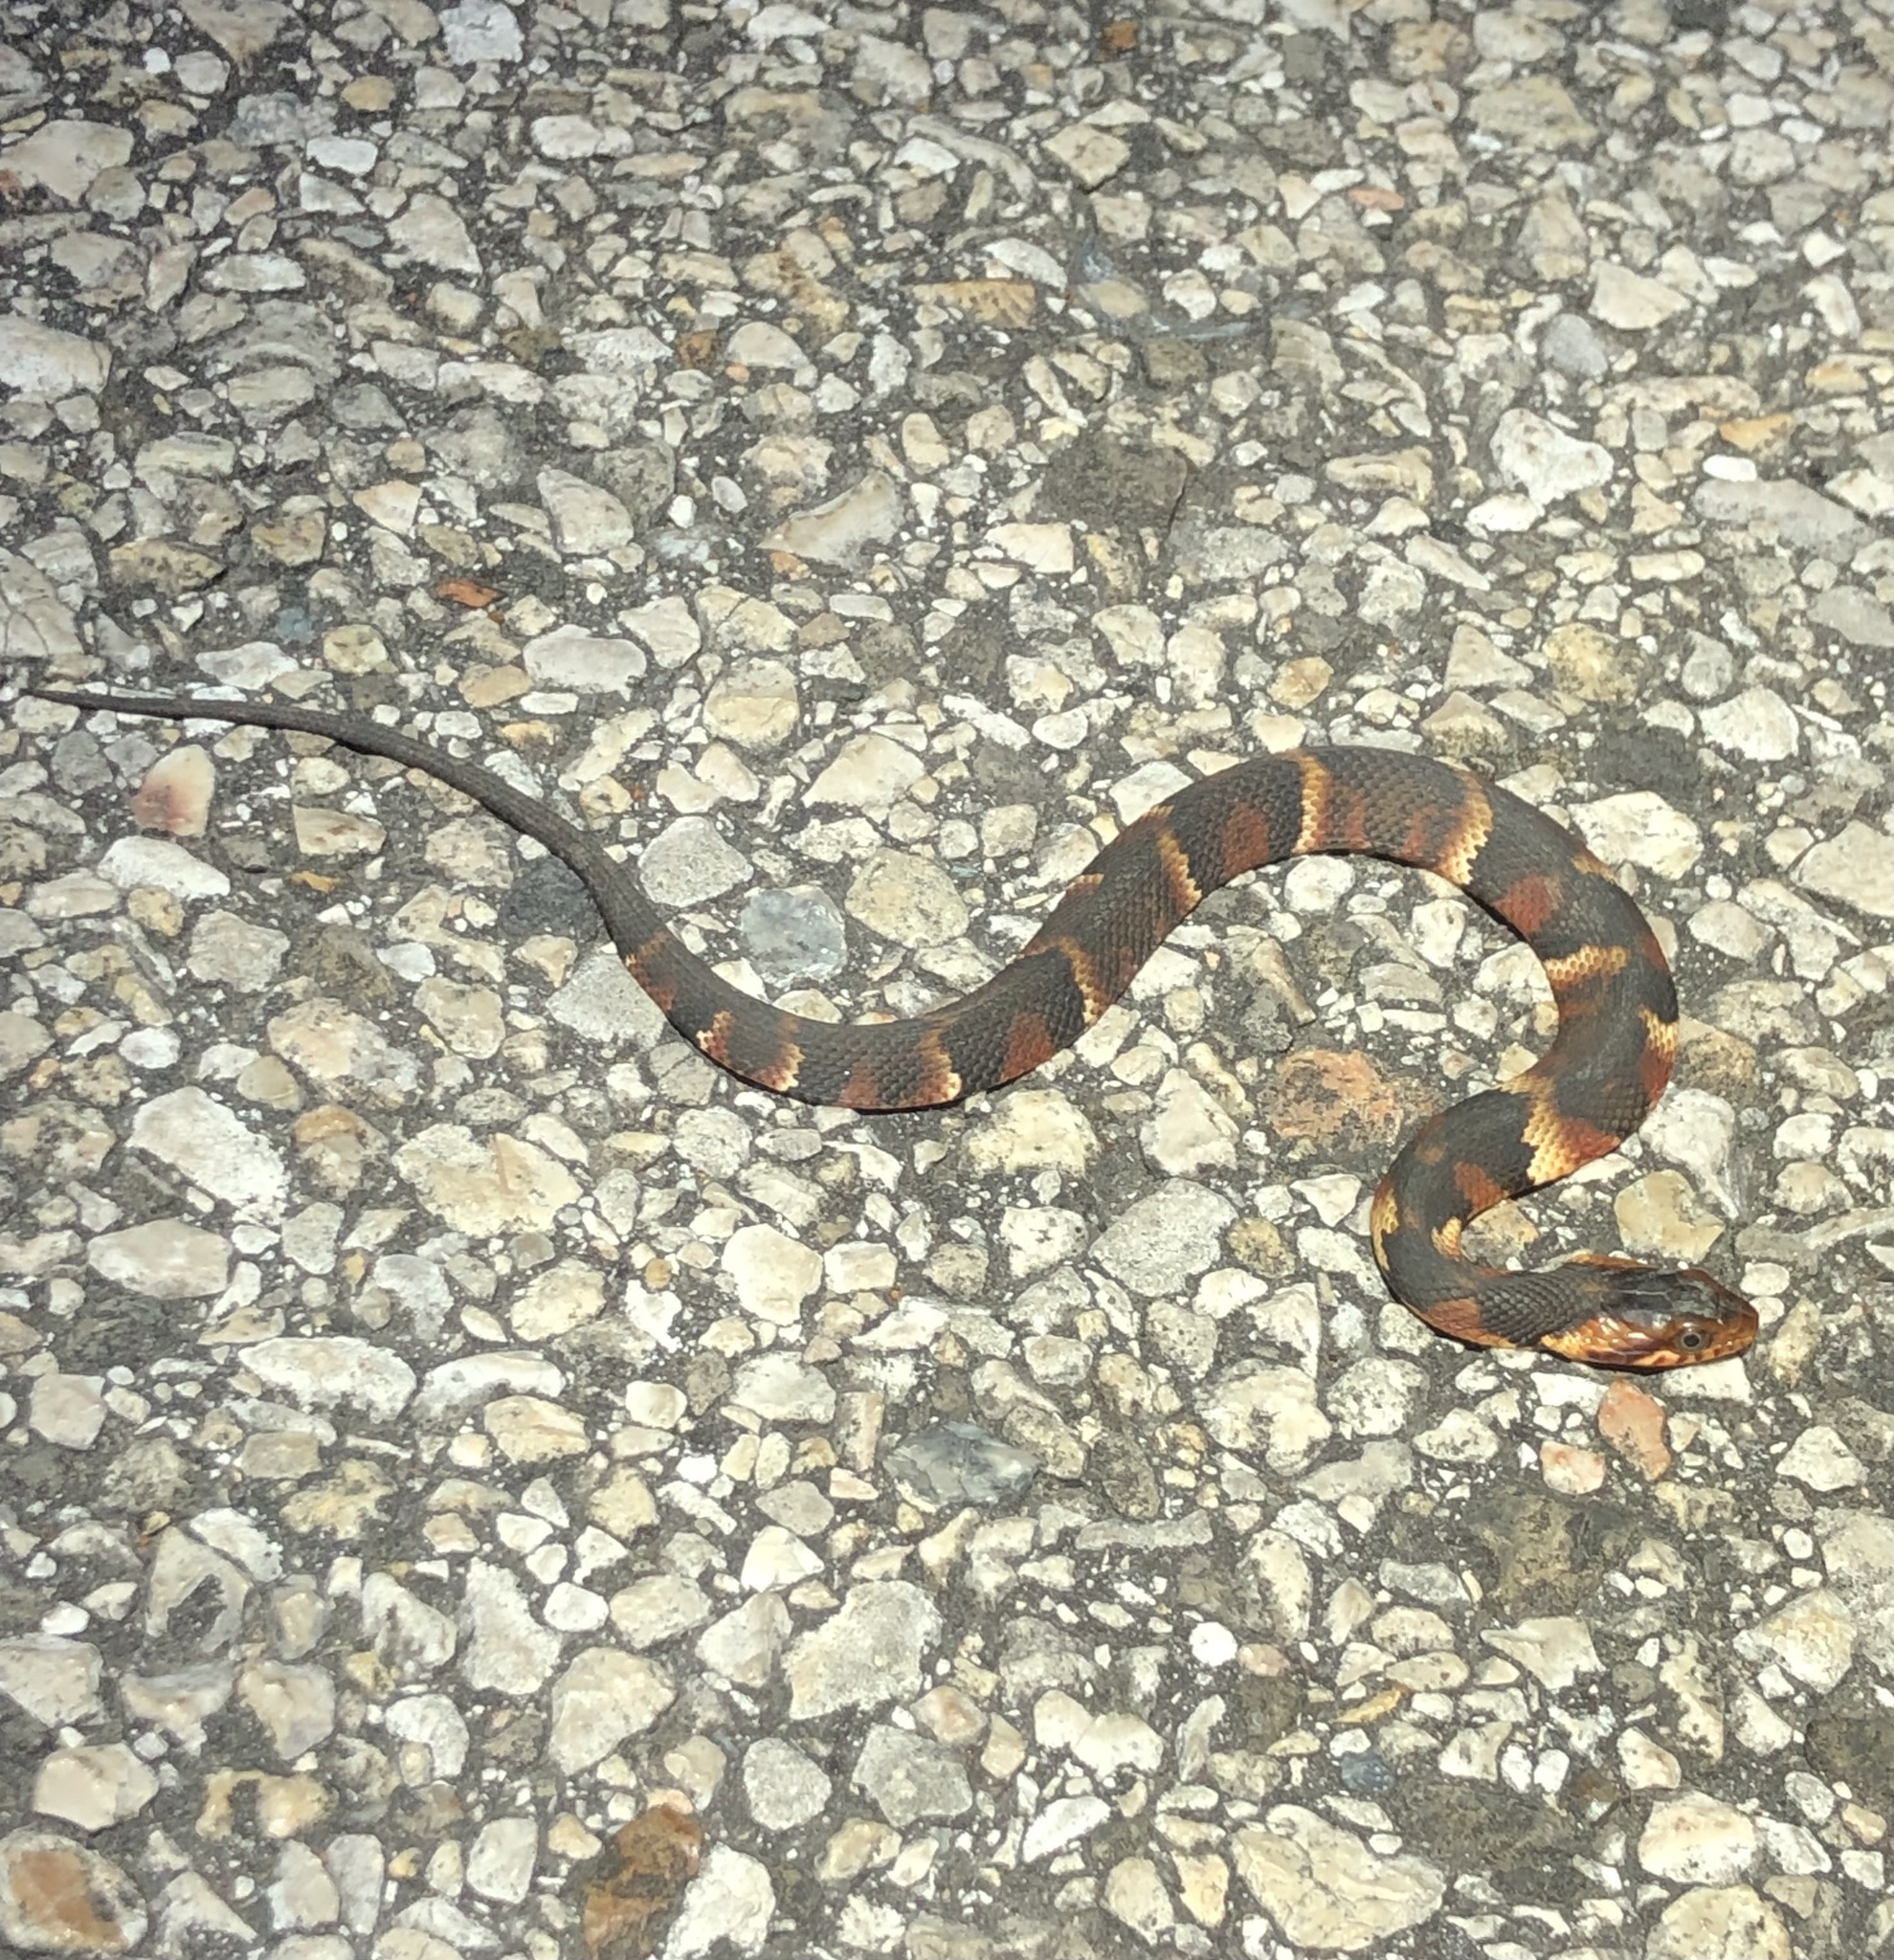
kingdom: Animalia
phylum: Chordata
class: Squamata
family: Colubridae
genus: Nerodia
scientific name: Nerodia fasciata
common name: Southern water snake
